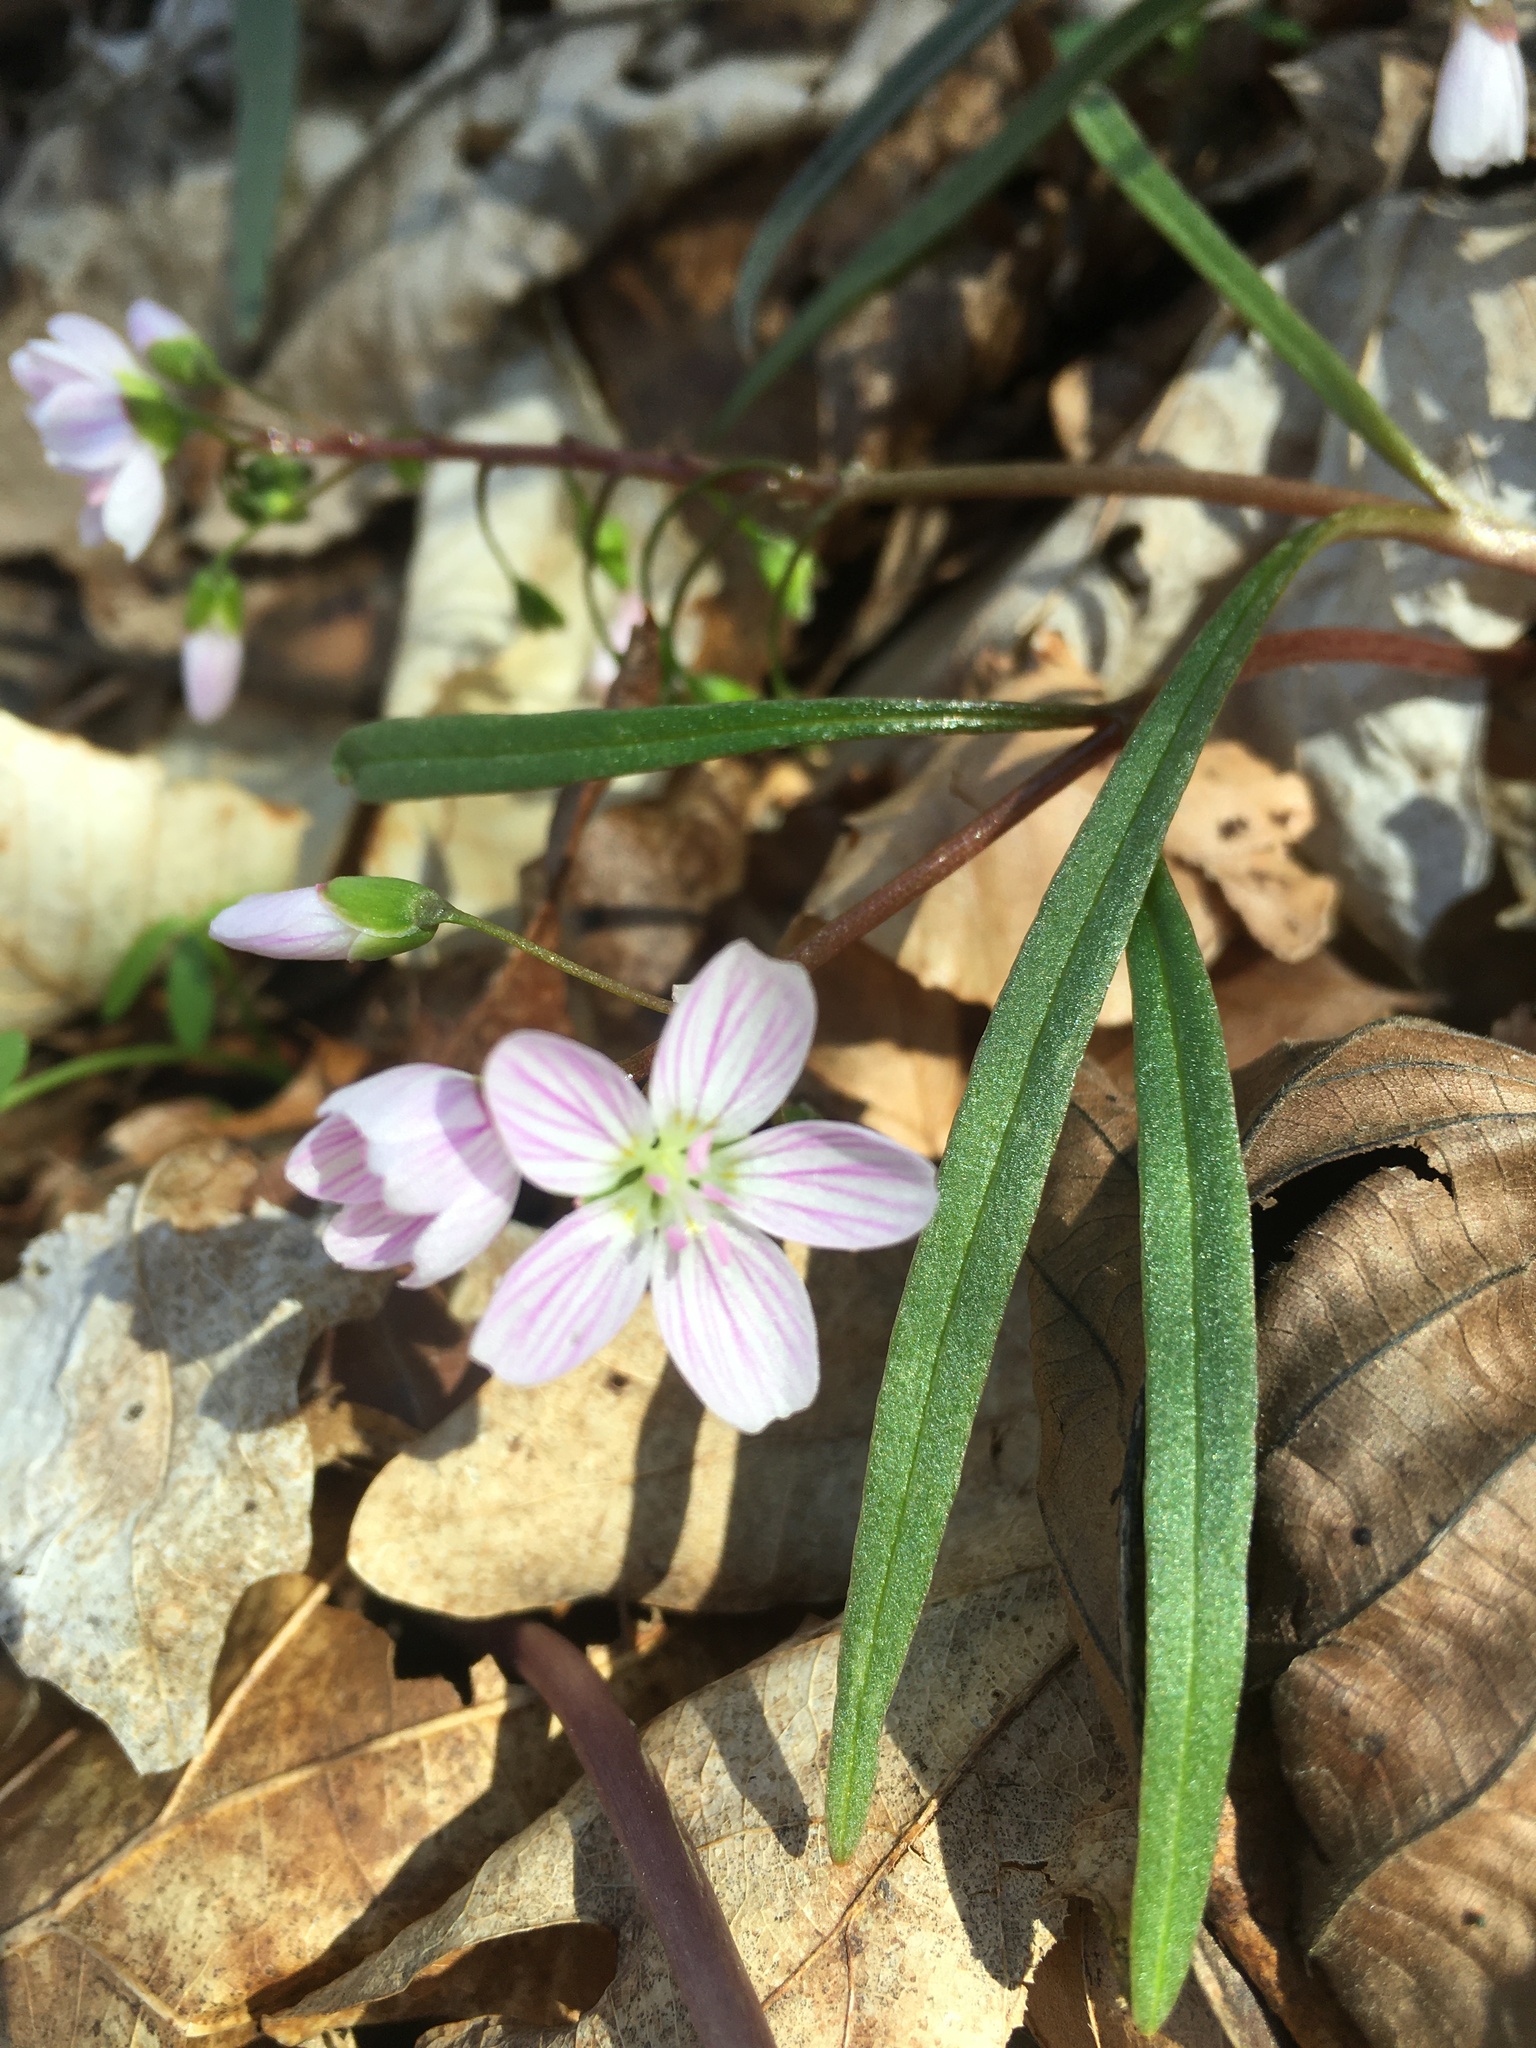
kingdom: Plantae
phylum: Tracheophyta
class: Magnoliopsida
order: Caryophyllales
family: Montiaceae
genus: Claytonia
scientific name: Claytonia virginica
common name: Virginia springbeauty
